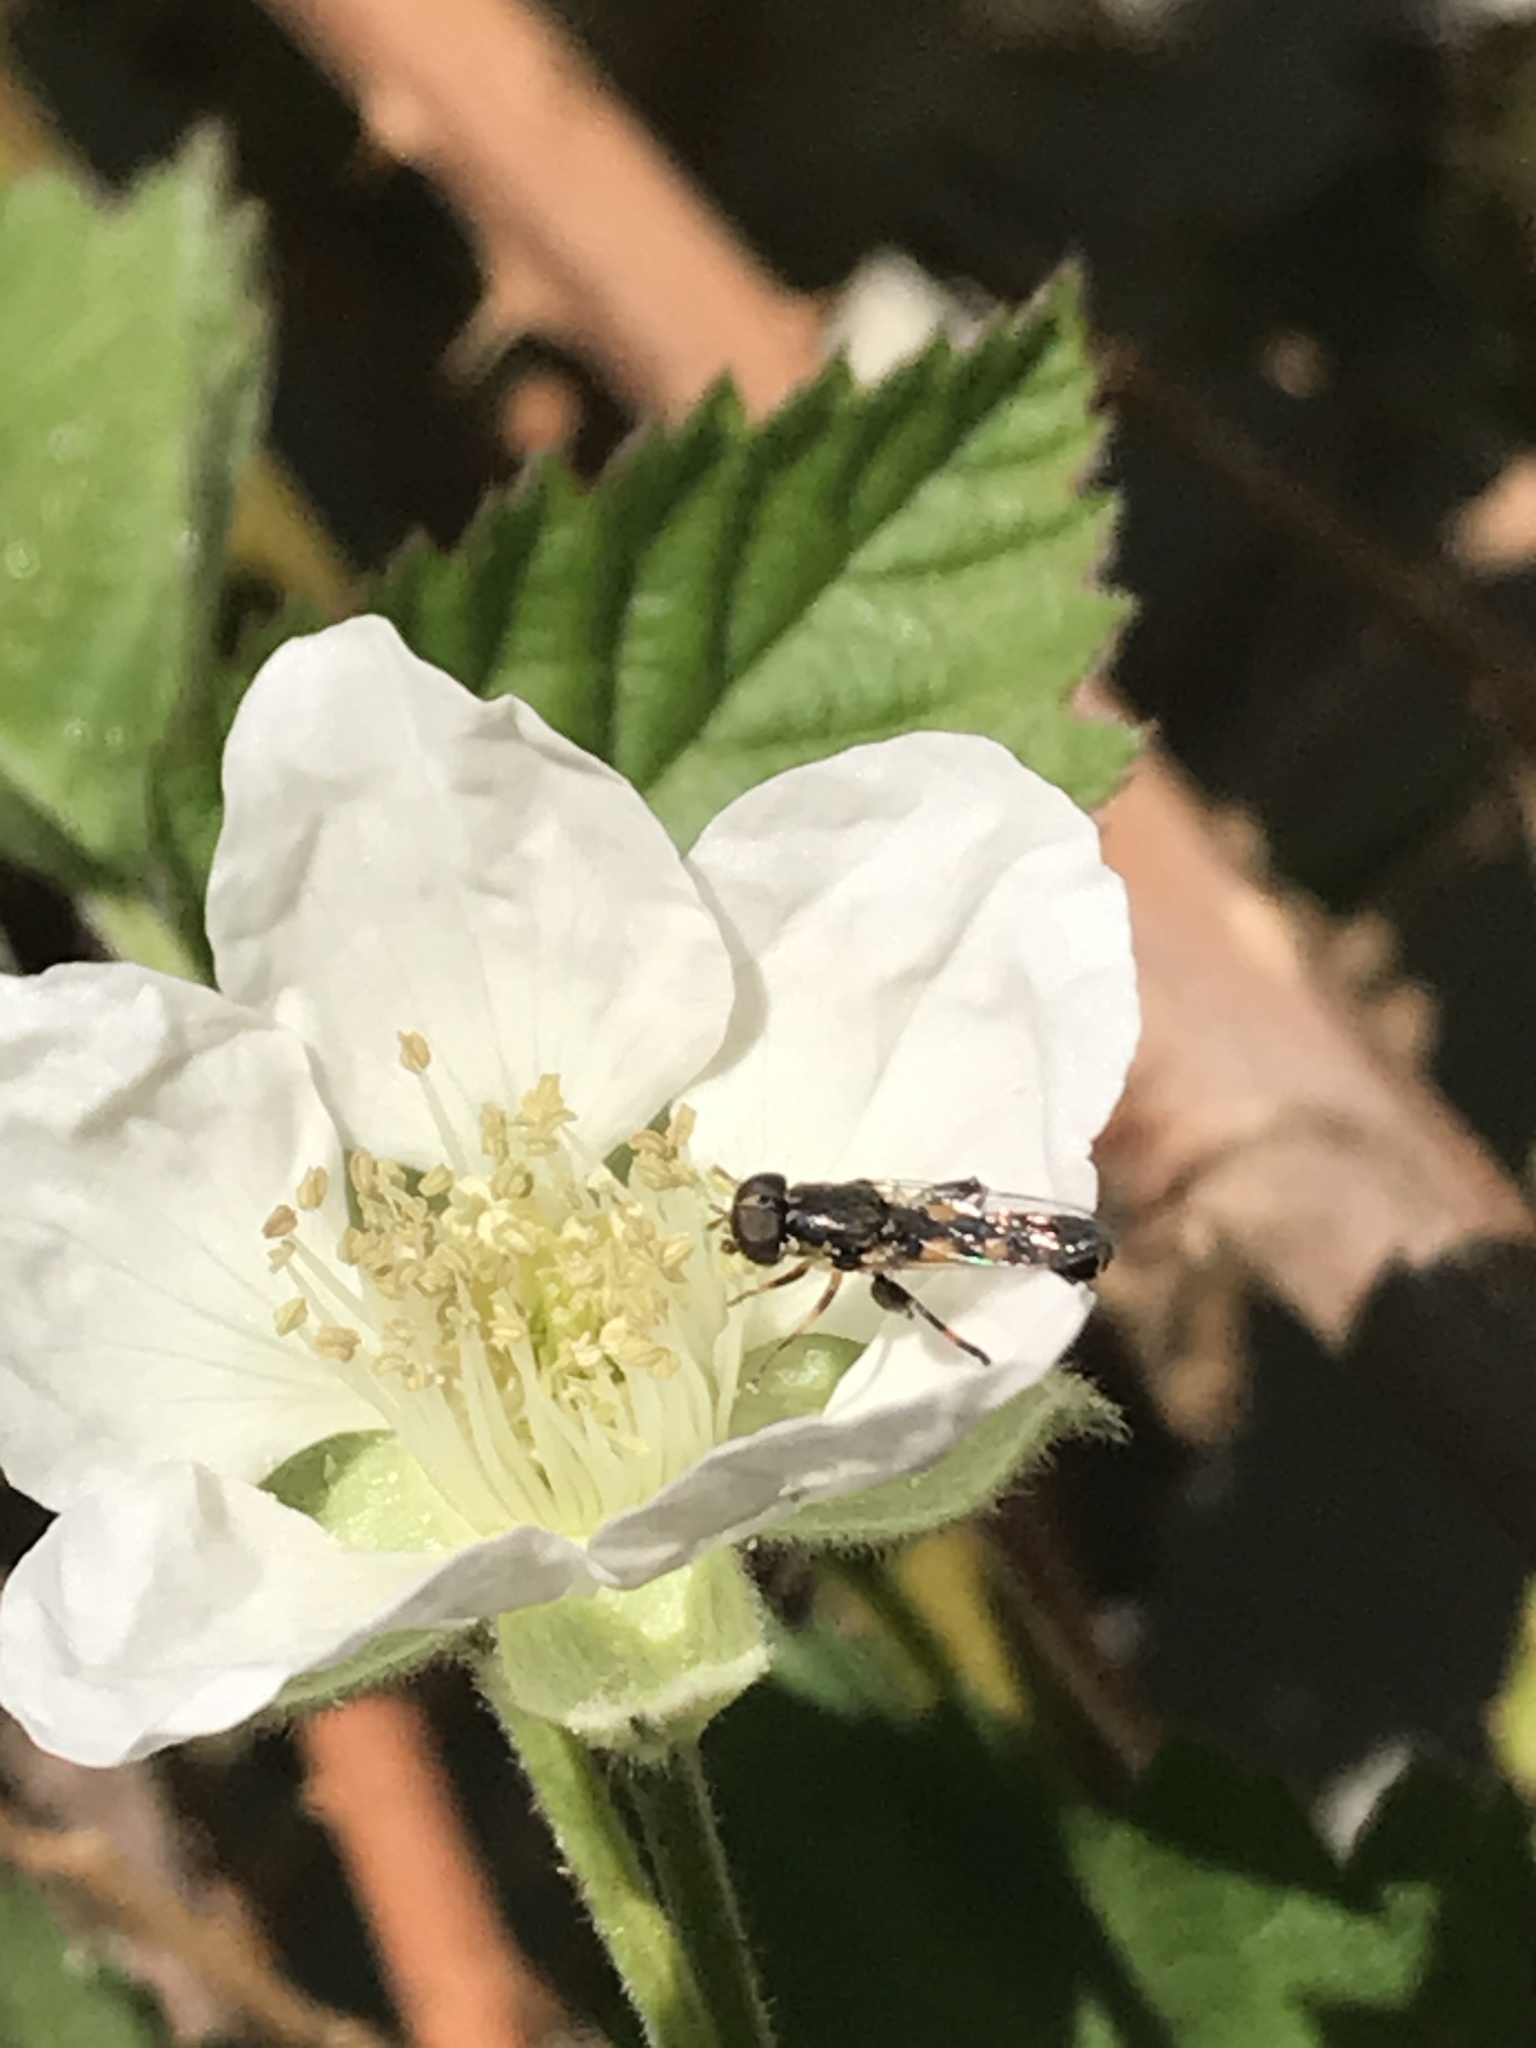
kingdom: Animalia
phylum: Arthropoda
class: Insecta
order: Diptera
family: Syrphidae
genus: Syritta
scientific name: Syritta pipiens
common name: Hover fly
